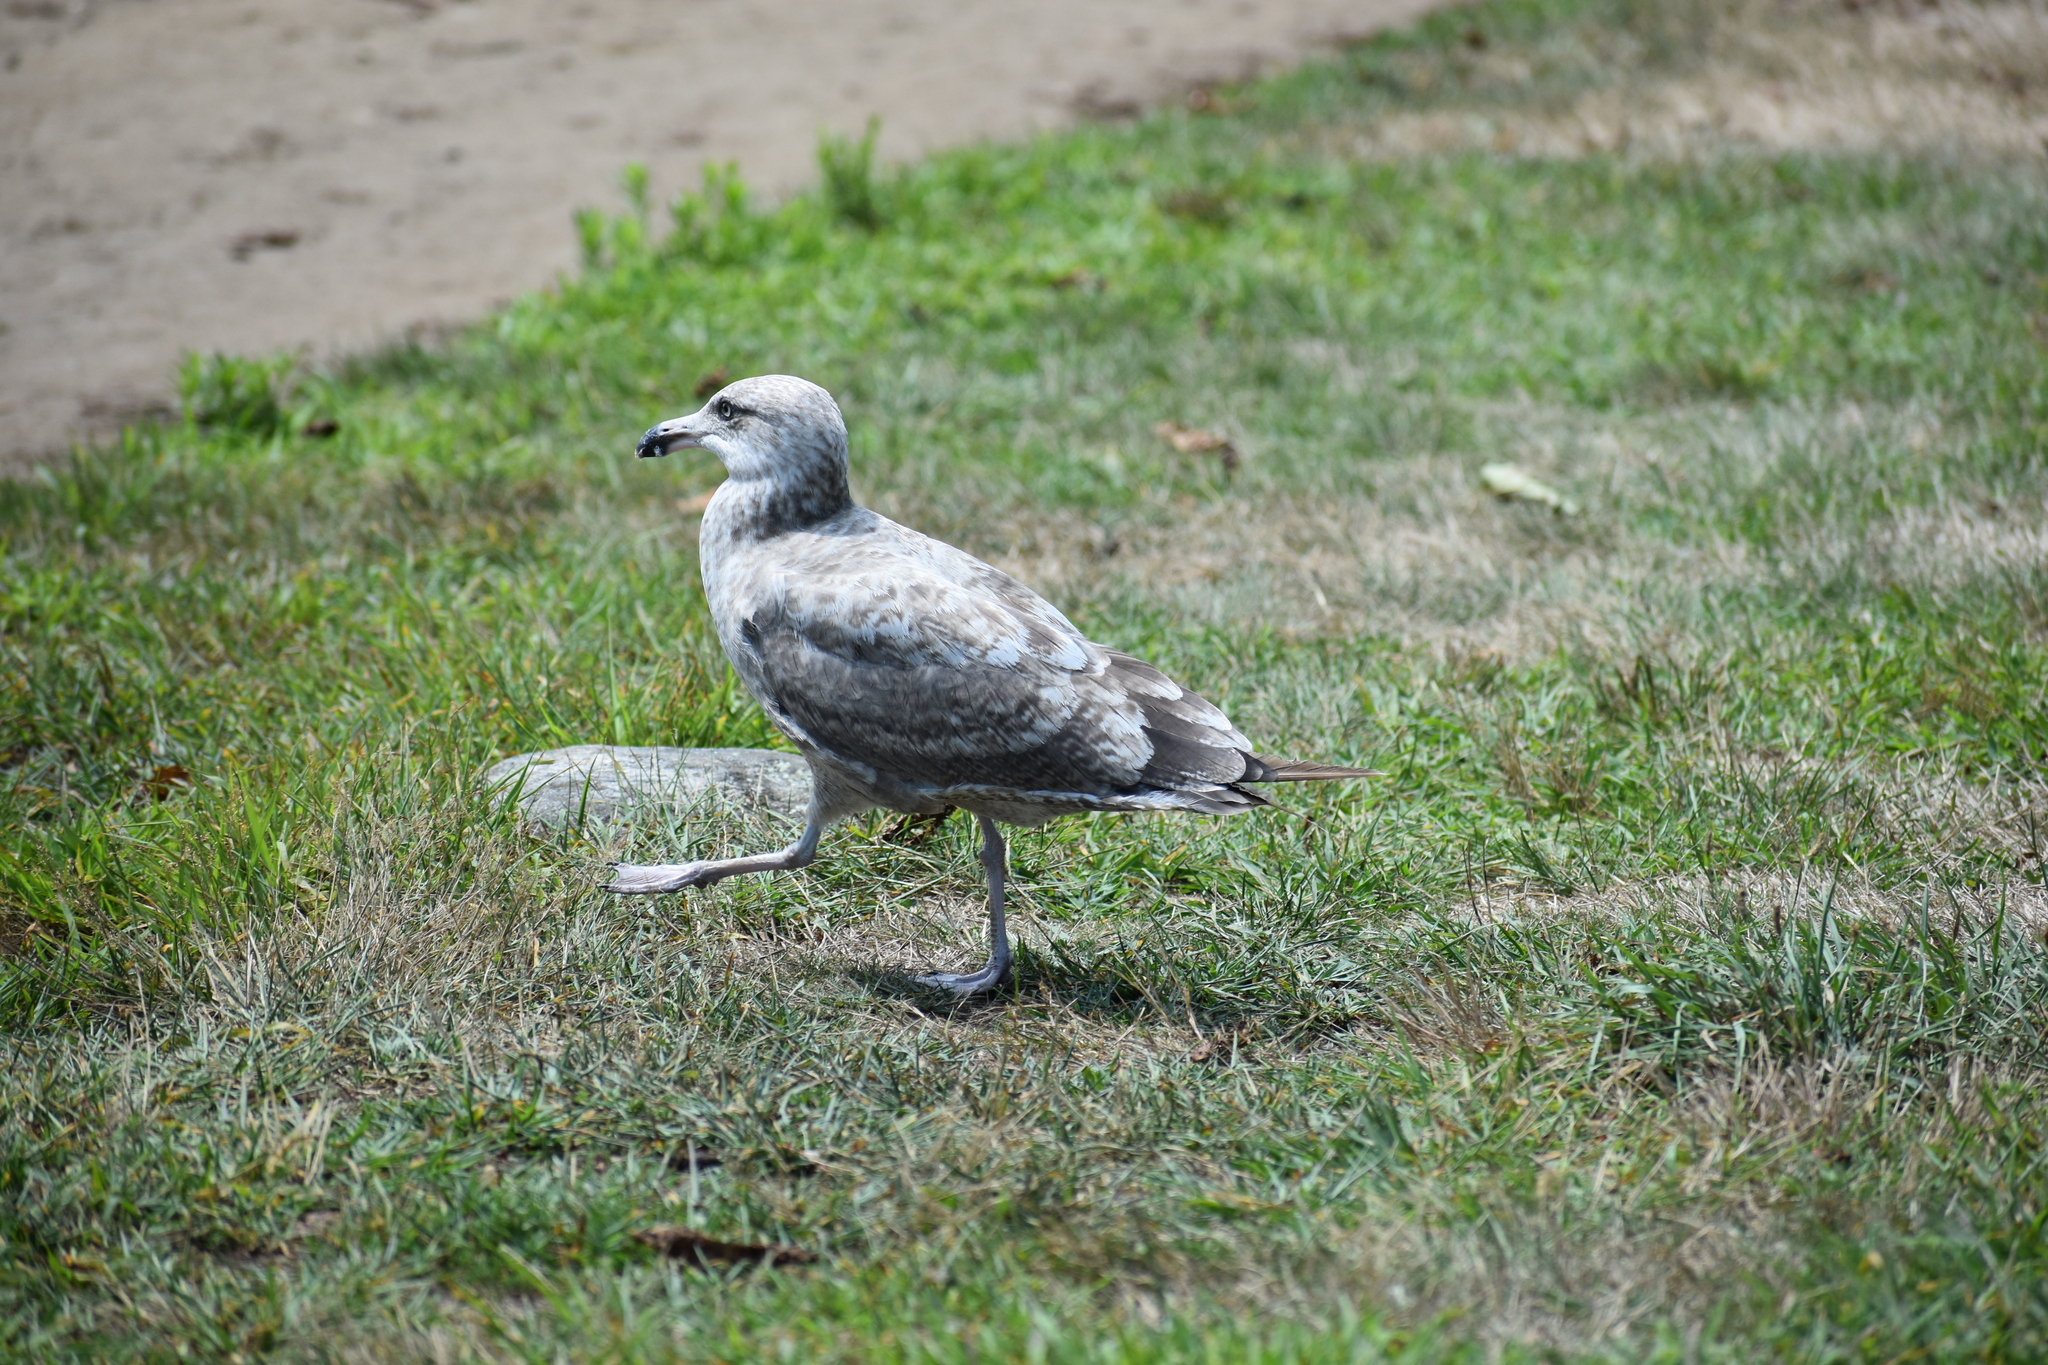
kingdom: Animalia
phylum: Chordata
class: Aves
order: Charadriiformes
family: Laridae
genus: Larus
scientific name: Larus argentatus
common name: Herring gull
